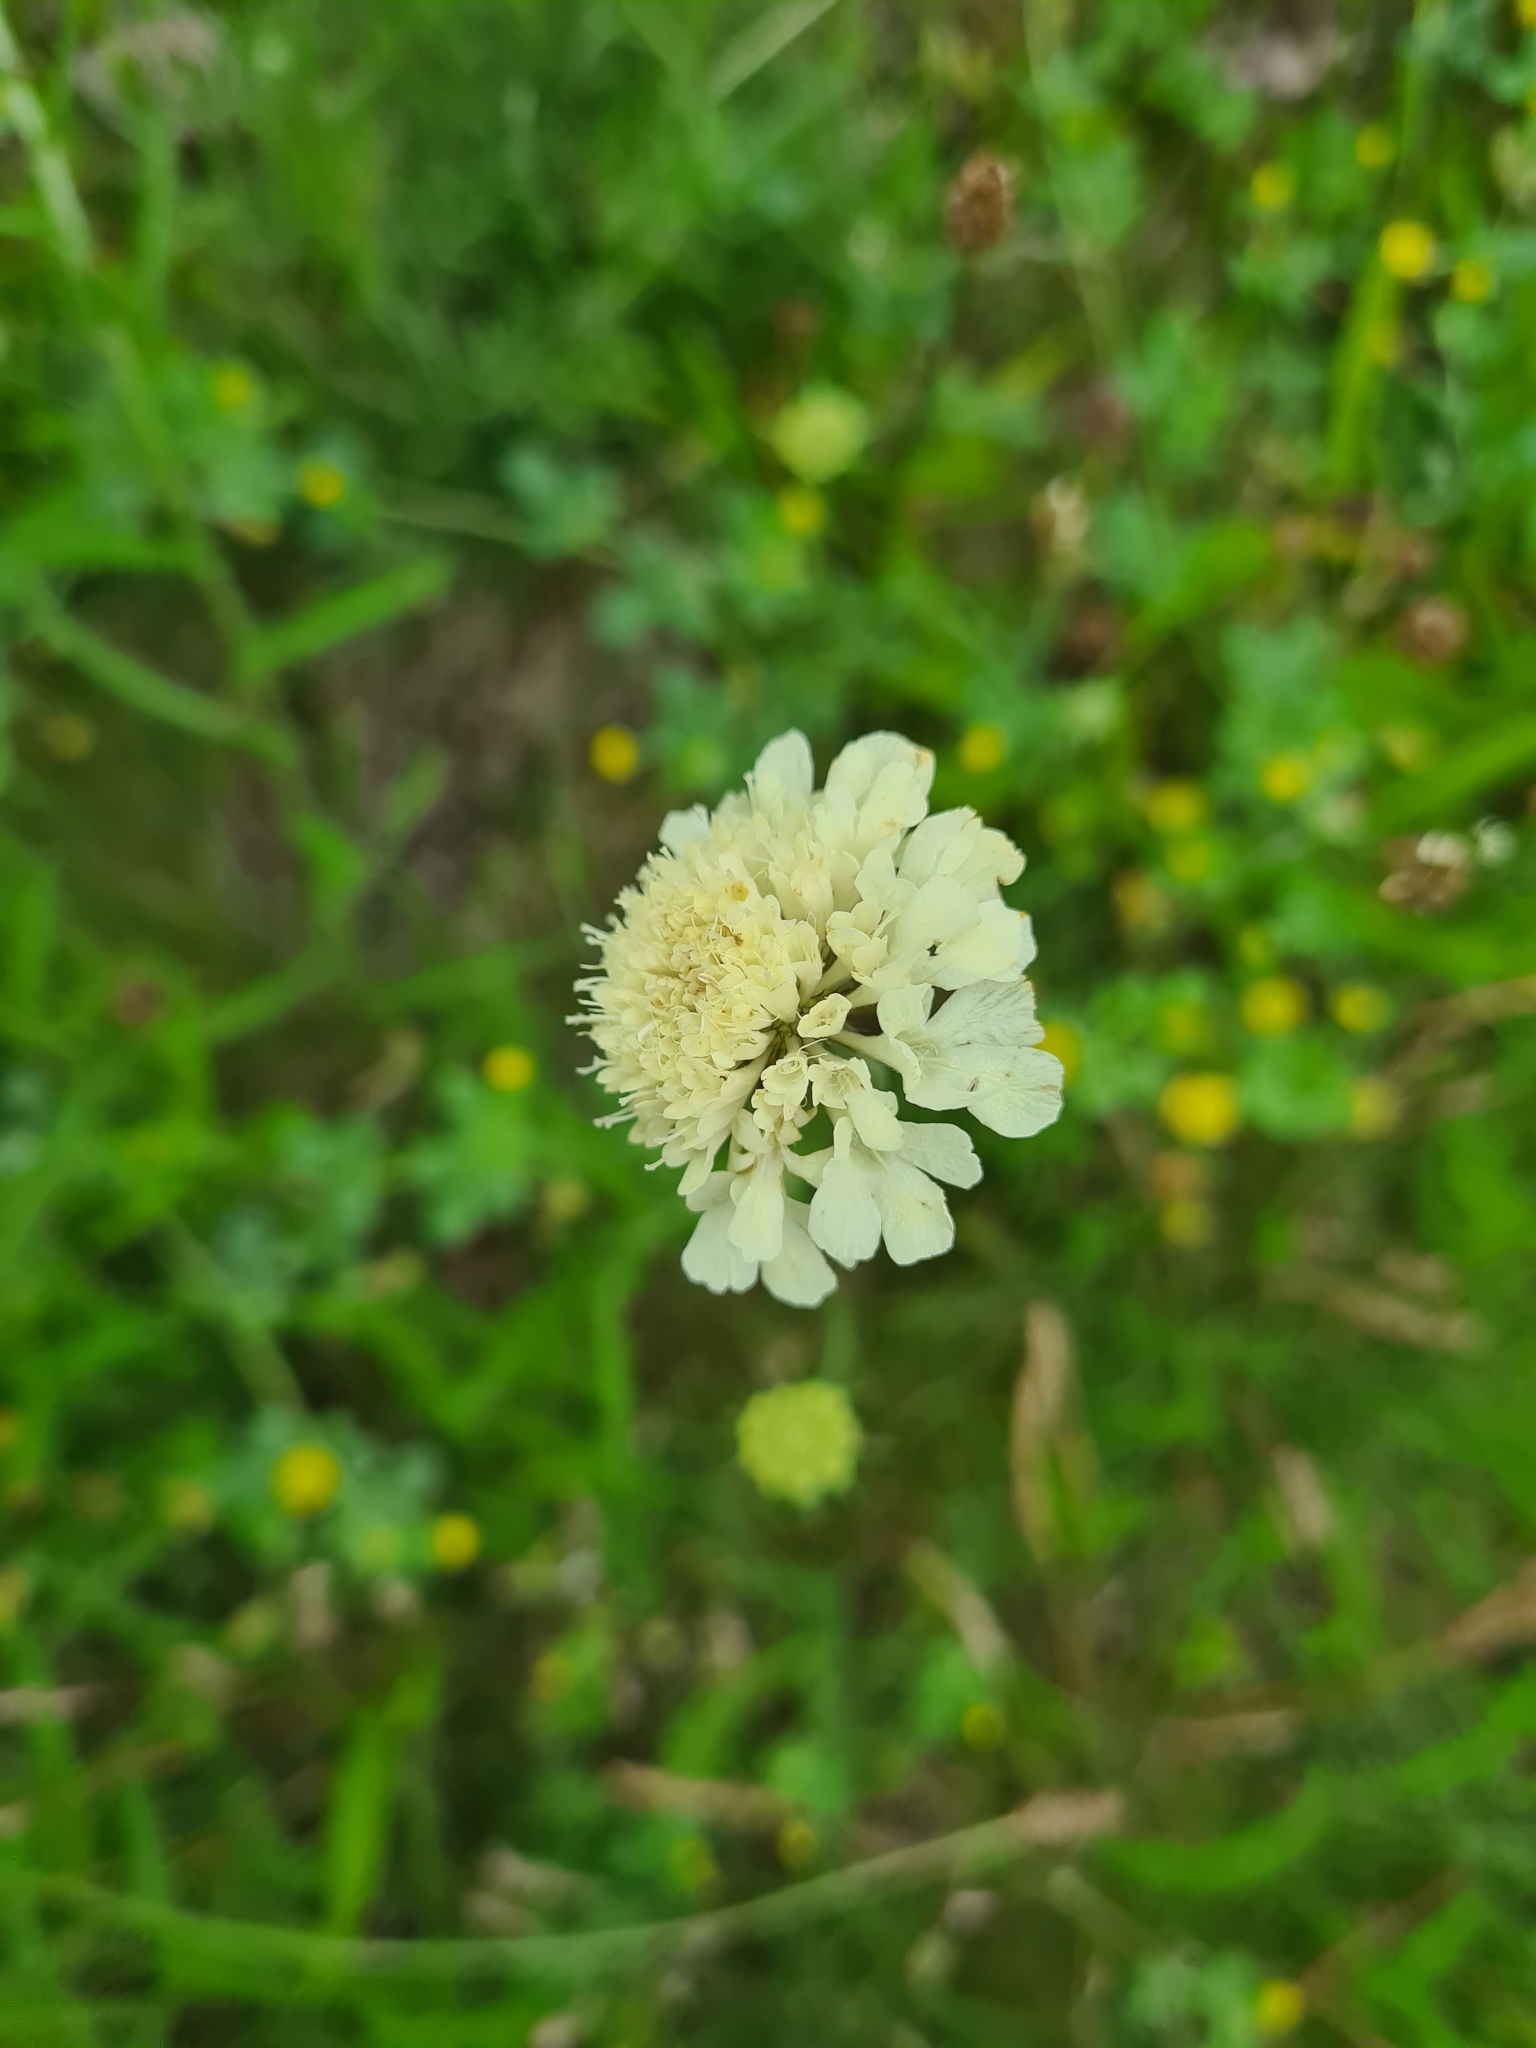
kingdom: Plantae
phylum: Tracheophyta
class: Magnoliopsida
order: Dipsacales
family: Caprifoliaceae
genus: Scabiosa
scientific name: Scabiosa ochroleuca
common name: Cream pincushions
